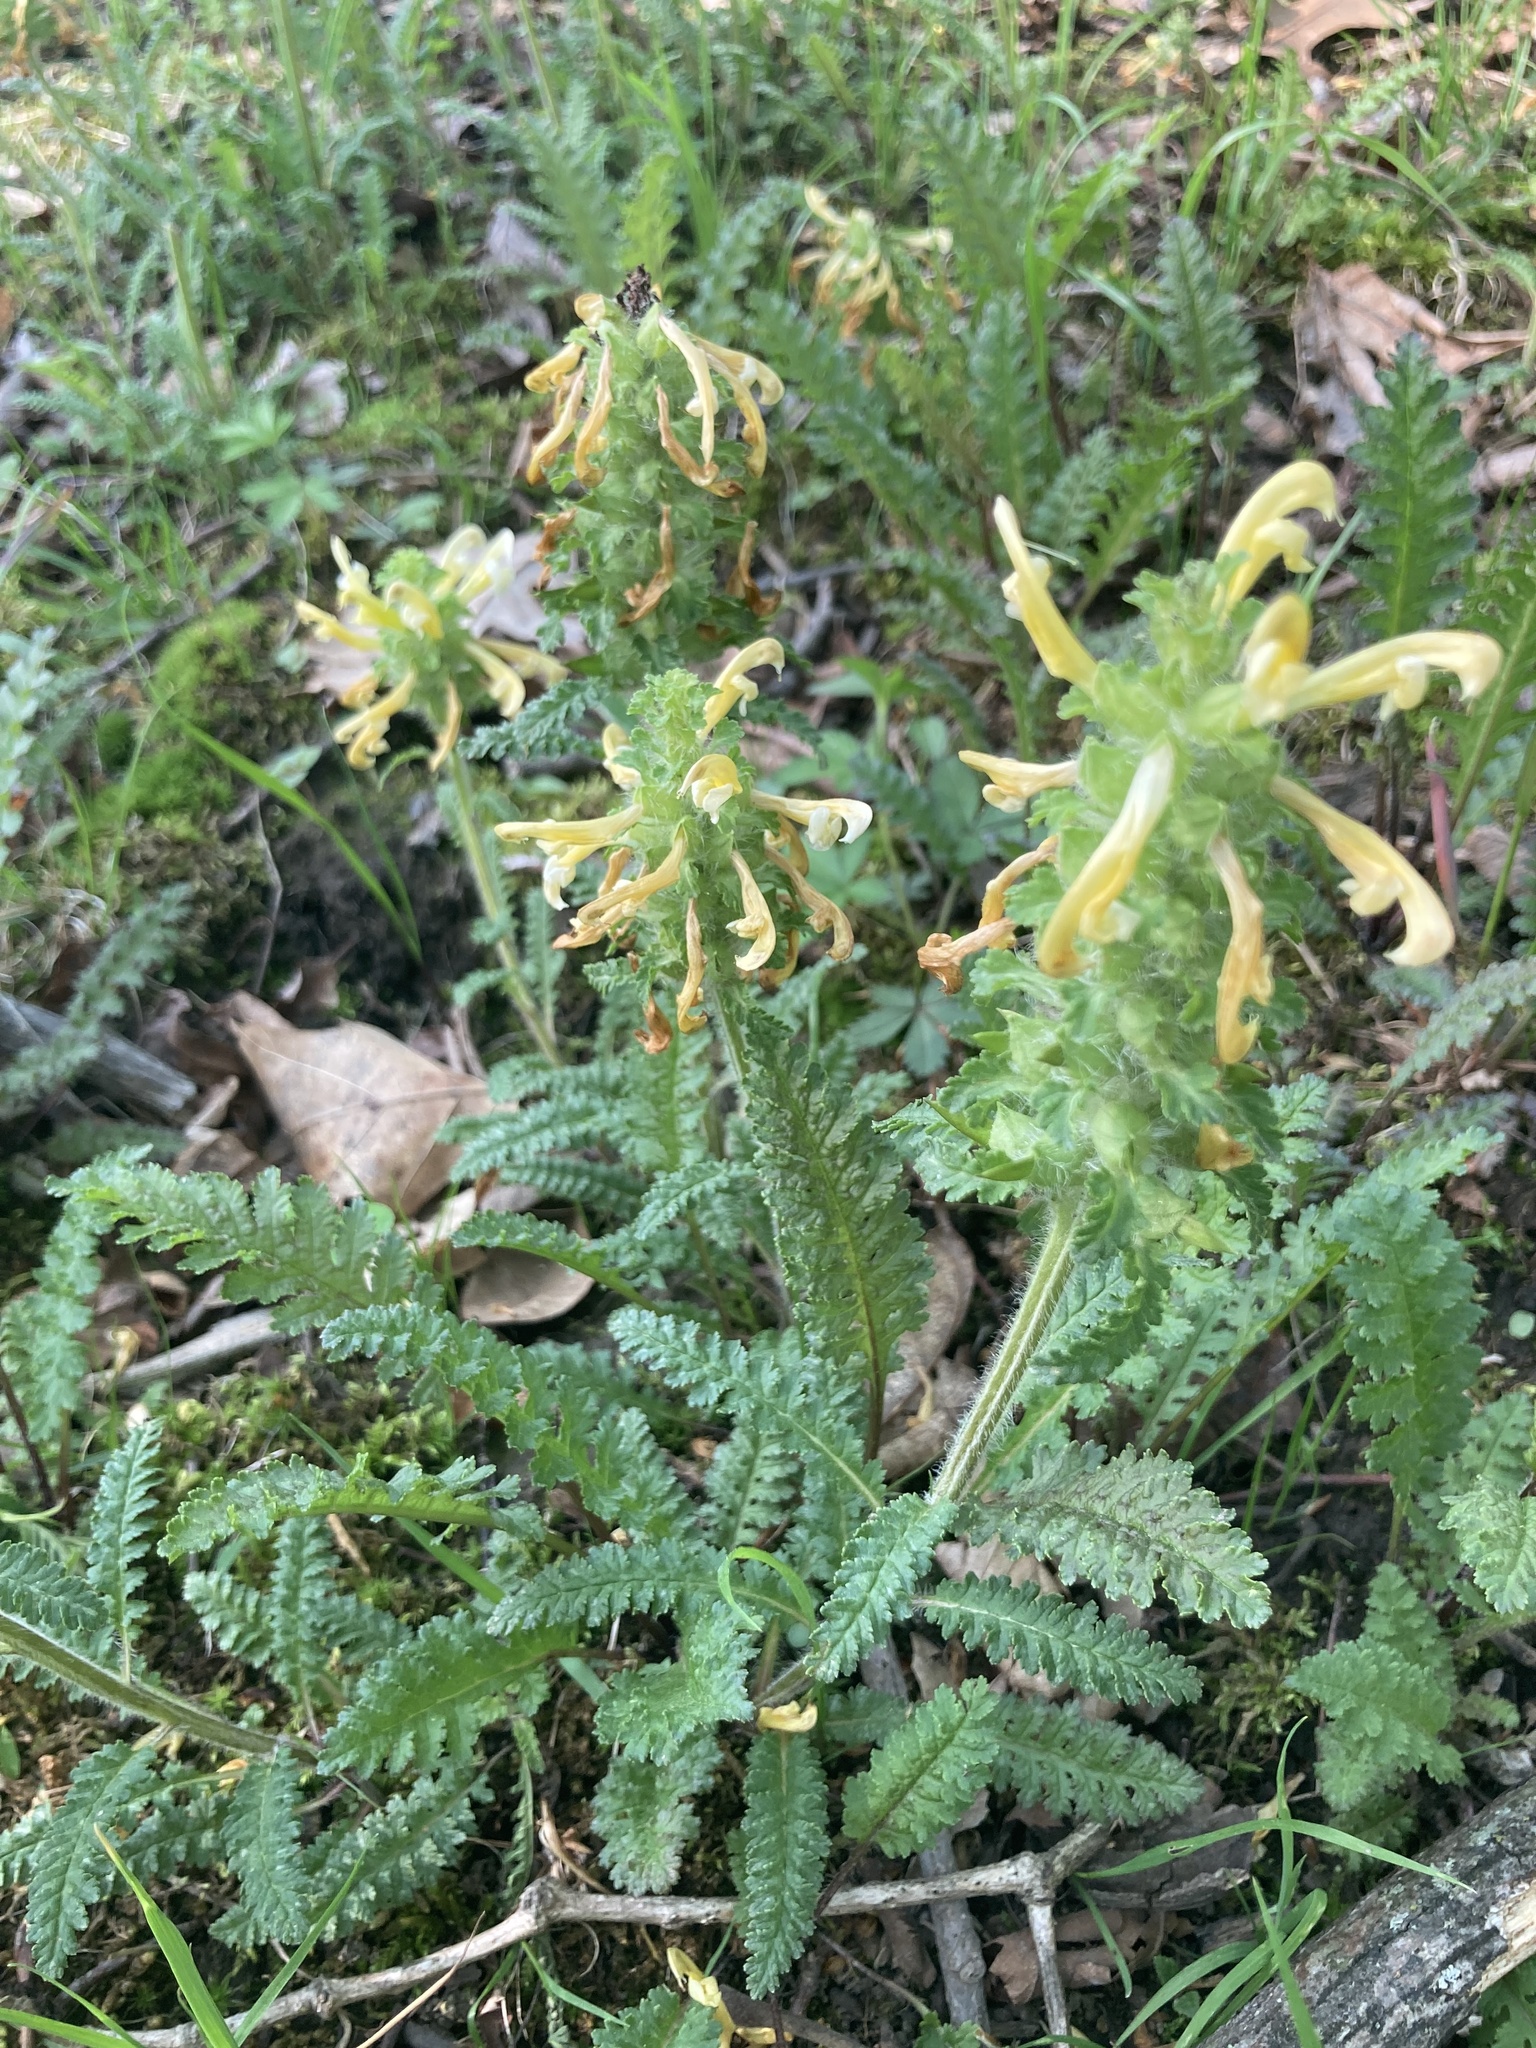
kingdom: Plantae
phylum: Tracheophyta
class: Magnoliopsida
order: Lamiales
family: Orobanchaceae
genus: Pedicularis
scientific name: Pedicularis canadensis
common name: Early lousewort
